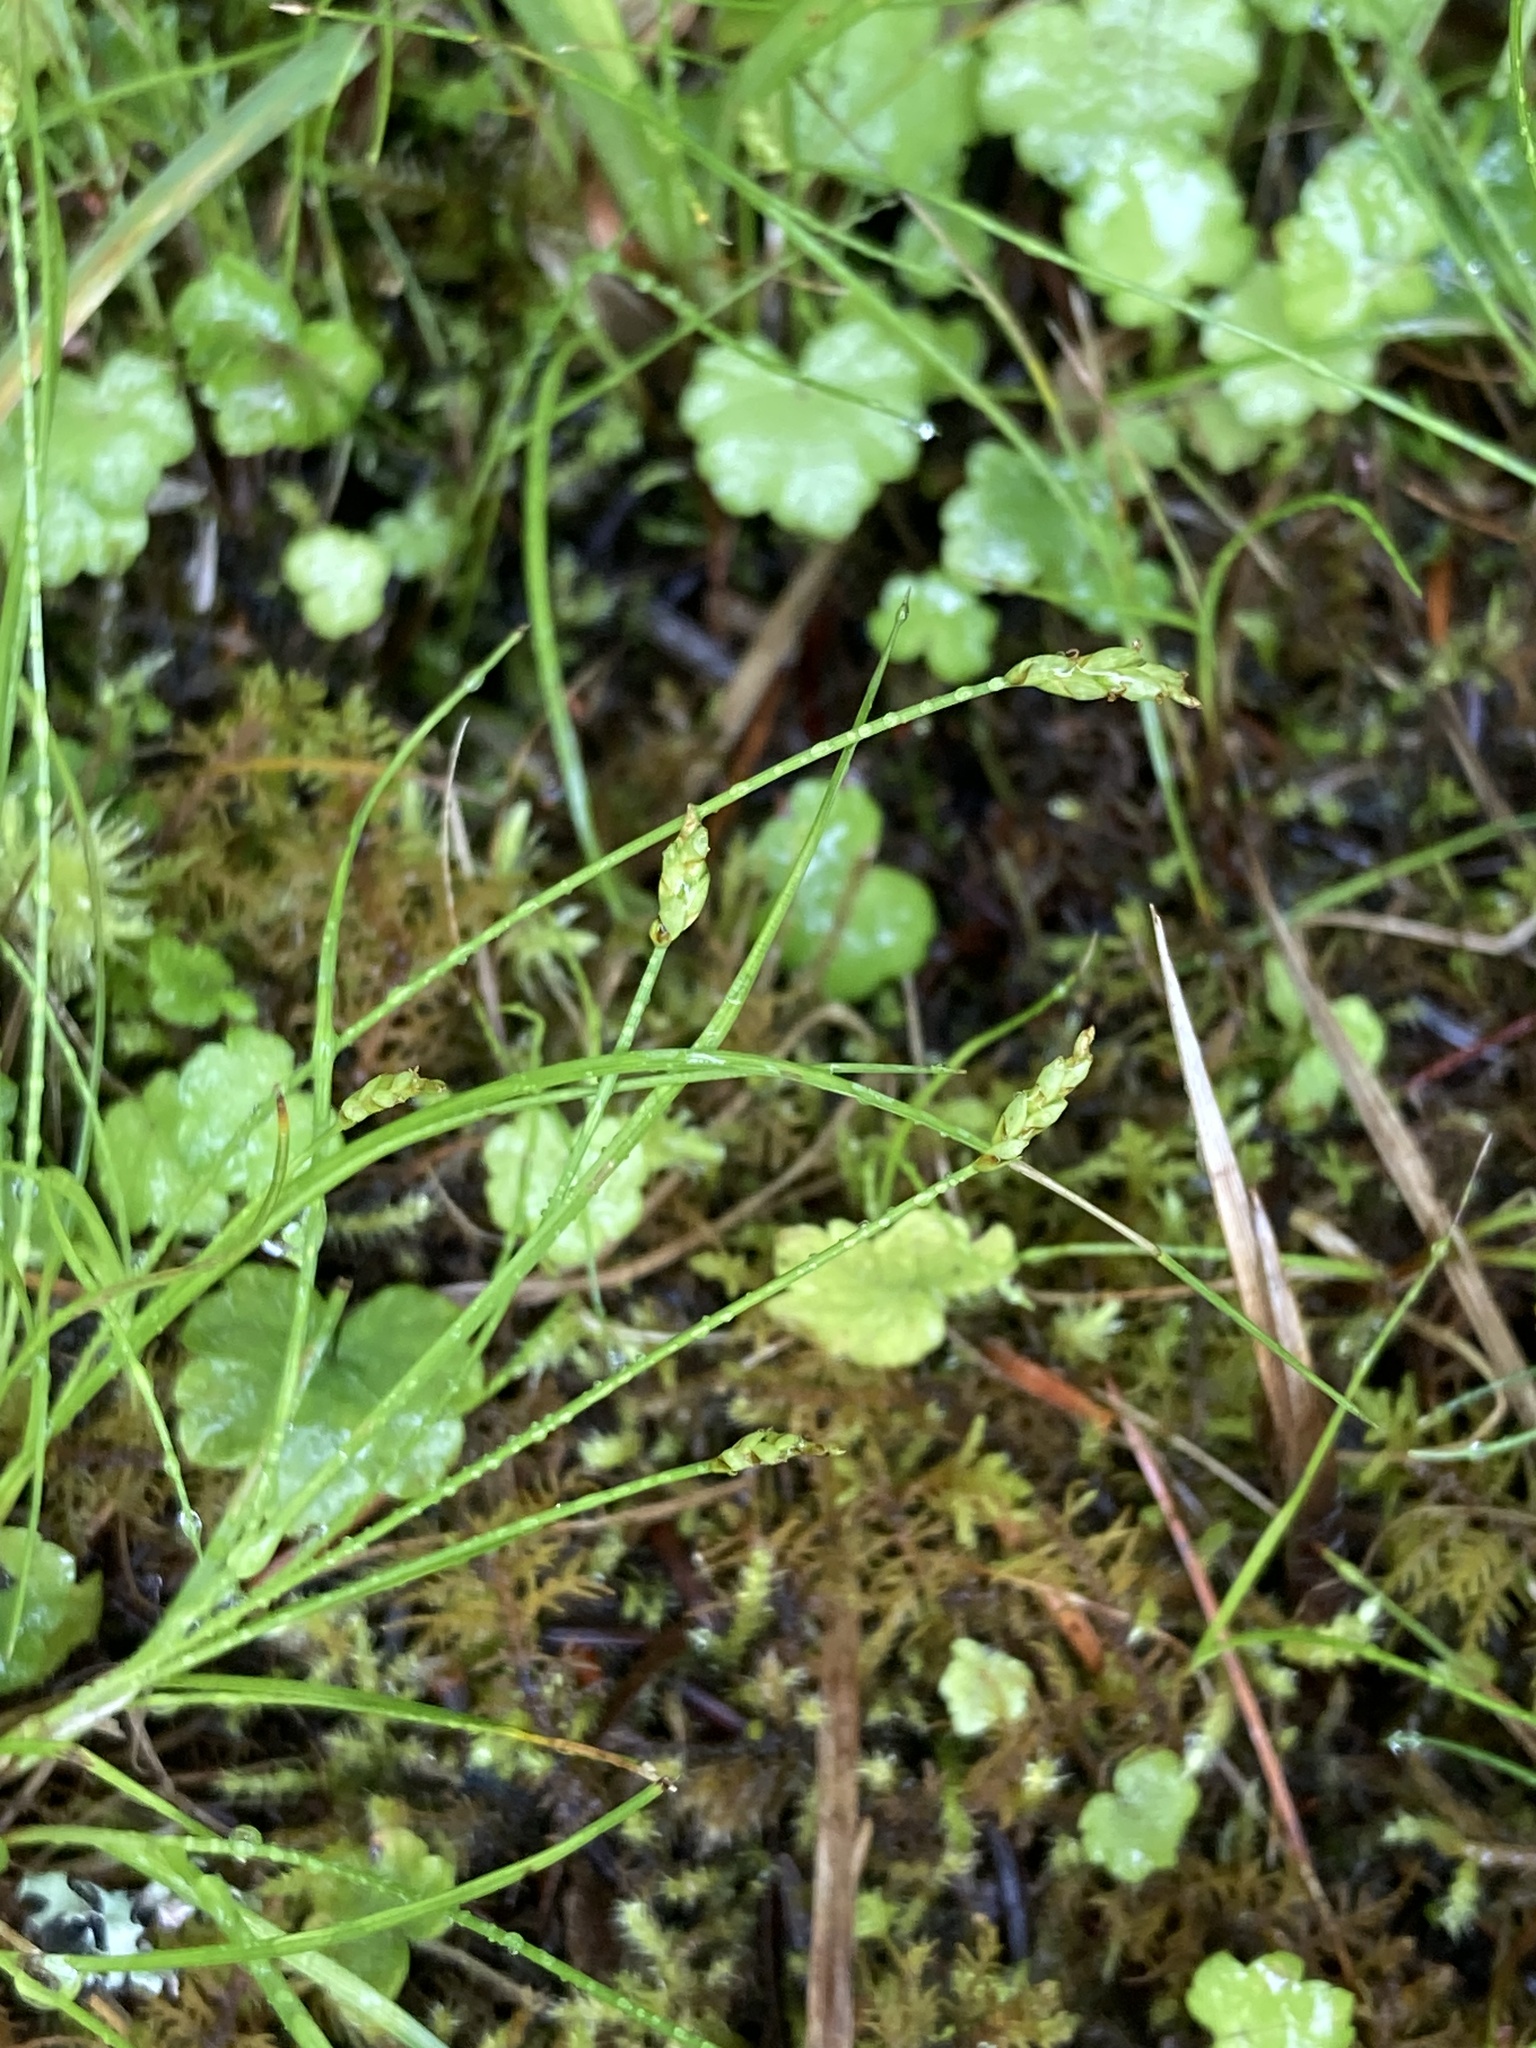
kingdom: Plantae
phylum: Tracheophyta
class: Liliopsida
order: Poales
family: Cyperaceae
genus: Carex
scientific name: Carex leptalea
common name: Bristly-stalked sedge
